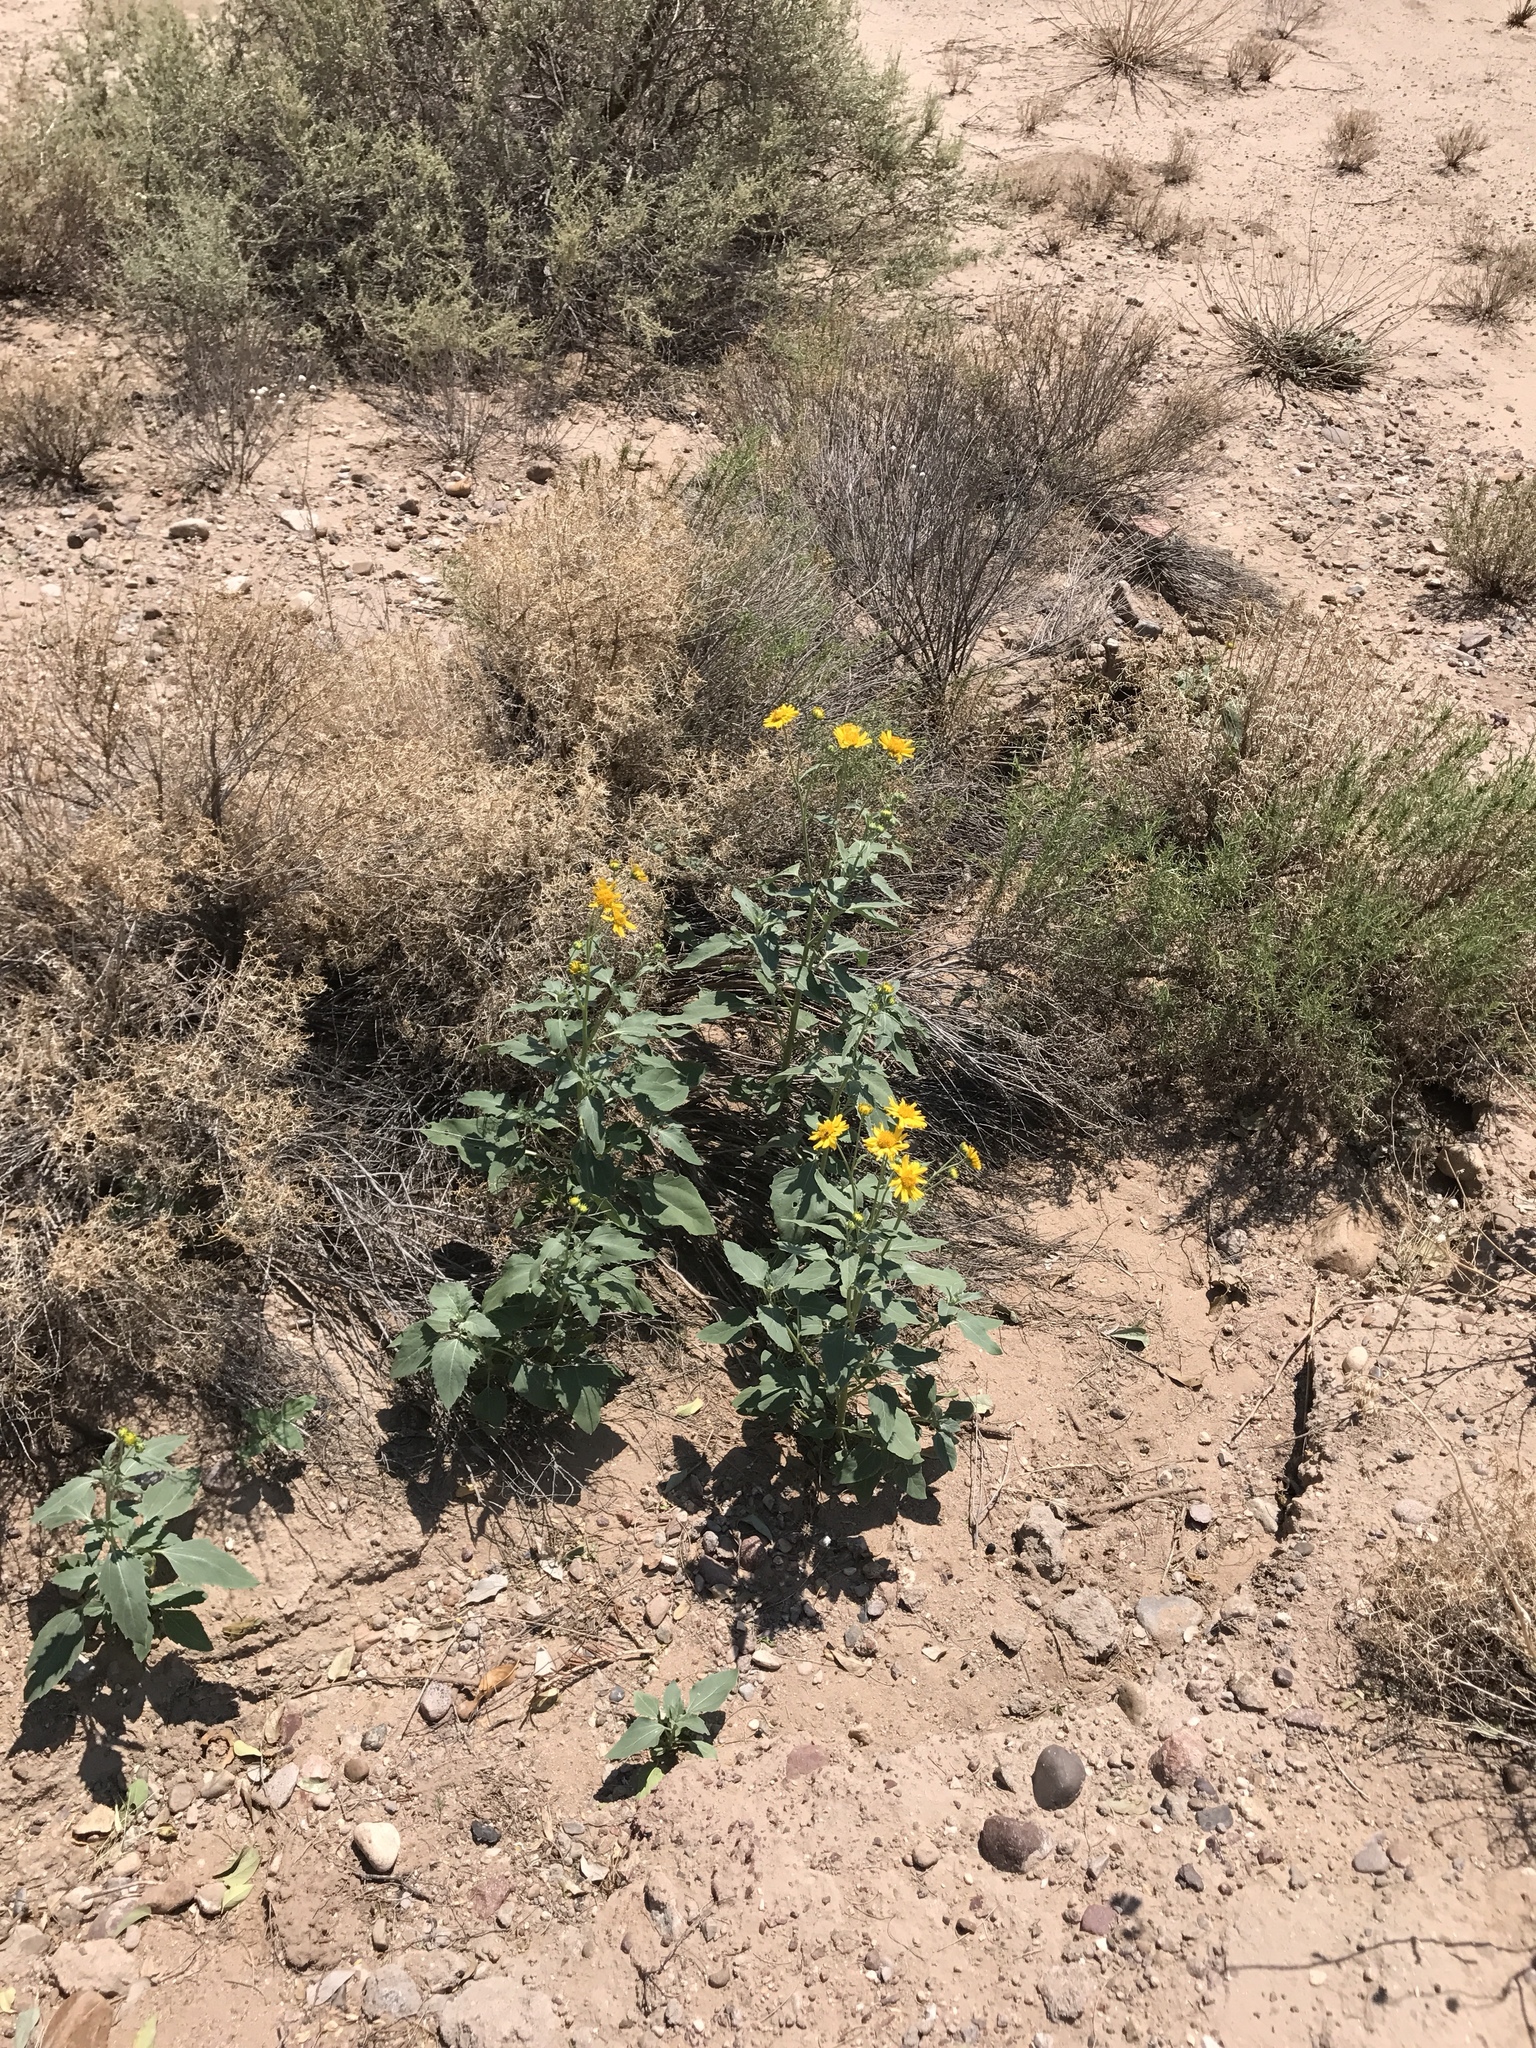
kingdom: Plantae
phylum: Tracheophyta
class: Magnoliopsida
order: Asterales
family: Asteraceae
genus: Verbesina
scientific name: Verbesina encelioides
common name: Golden crownbeard
